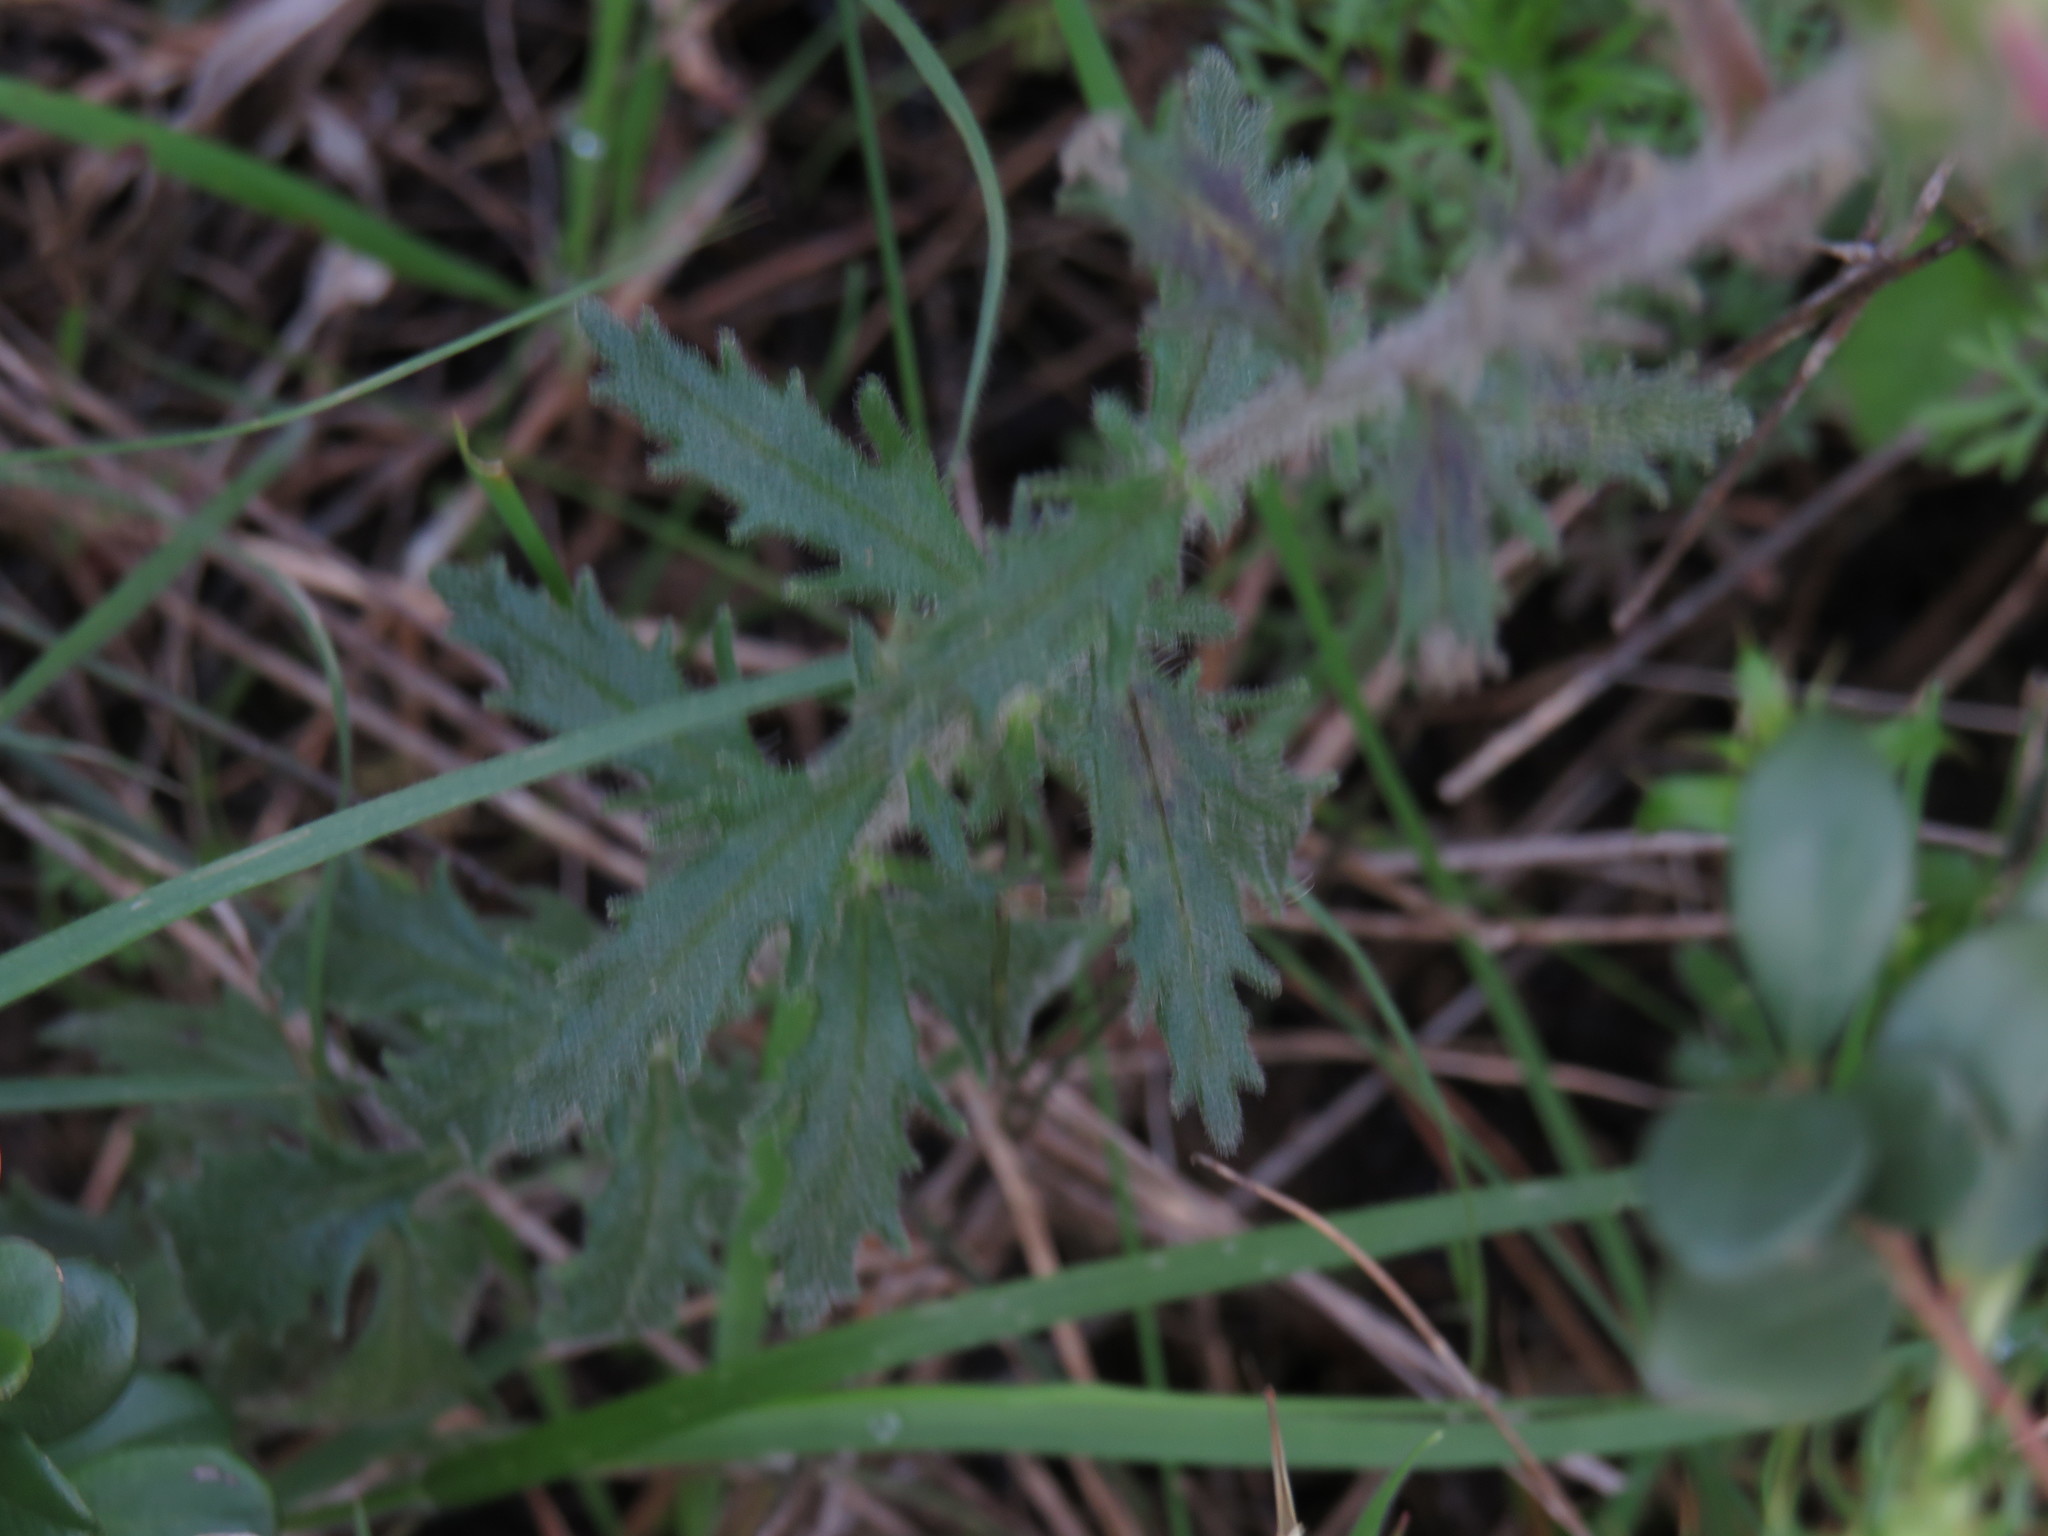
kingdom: Plantae
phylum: Tracheophyta
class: Magnoliopsida
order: Lamiales
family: Scrophulariaceae
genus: Zaluzianskya
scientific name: Zaluzianskya capensis
